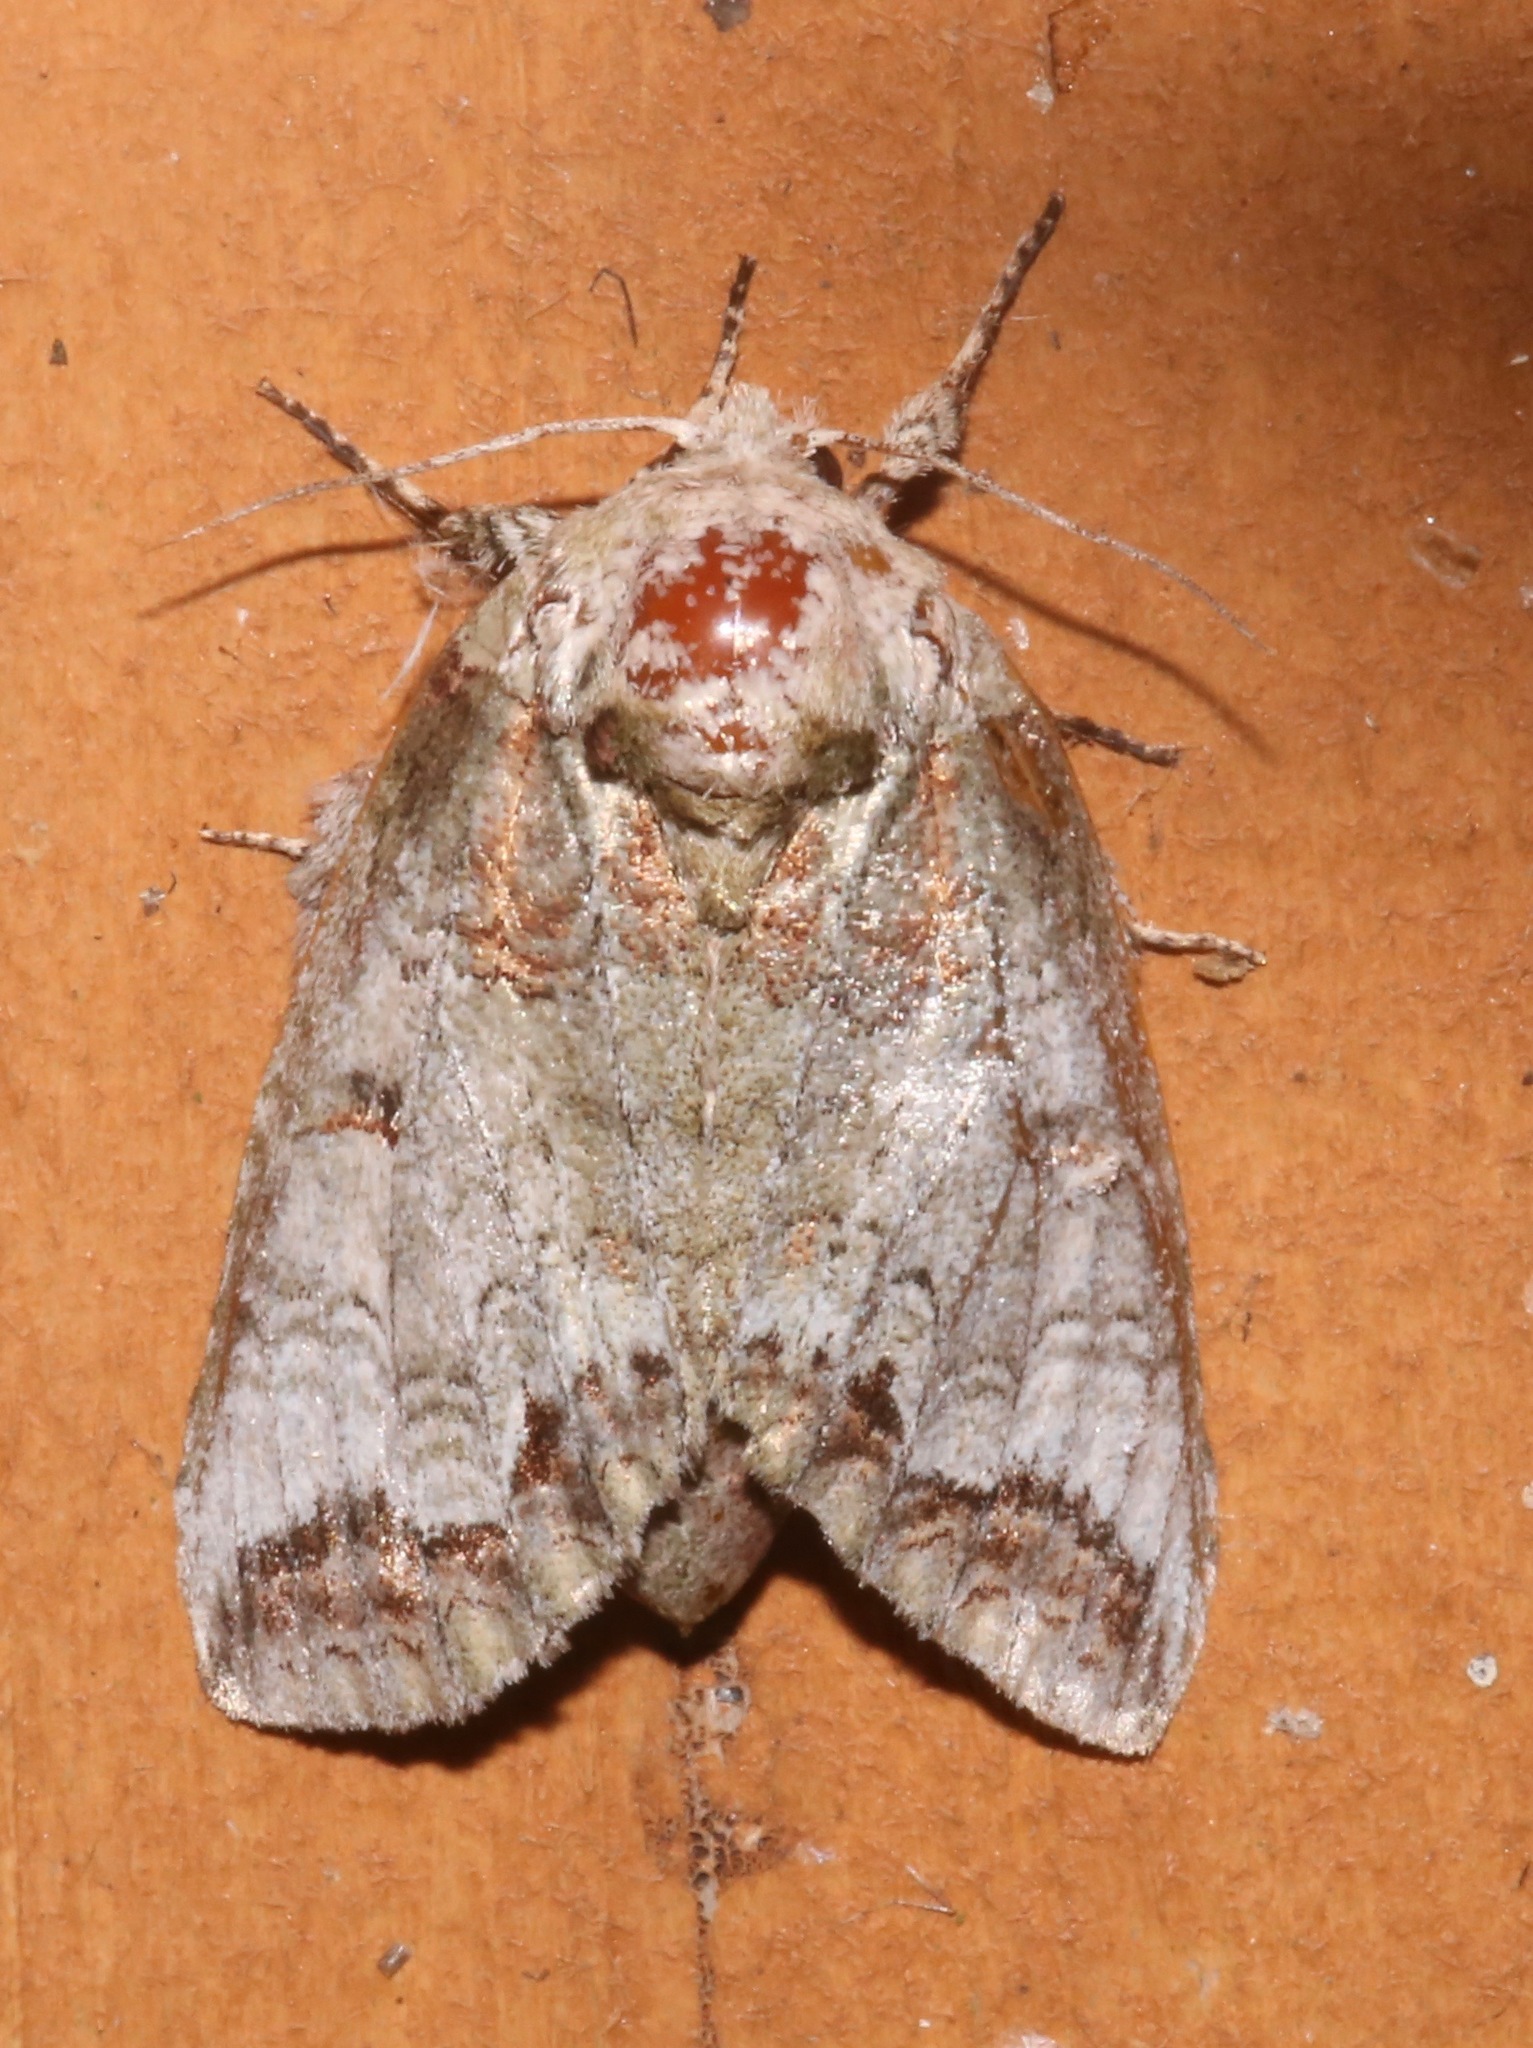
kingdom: Animalia
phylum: Arthropoda
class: Insecta
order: Lepidoptera
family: Notodontidae
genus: Heterocampa
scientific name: Heterocampa astarte
